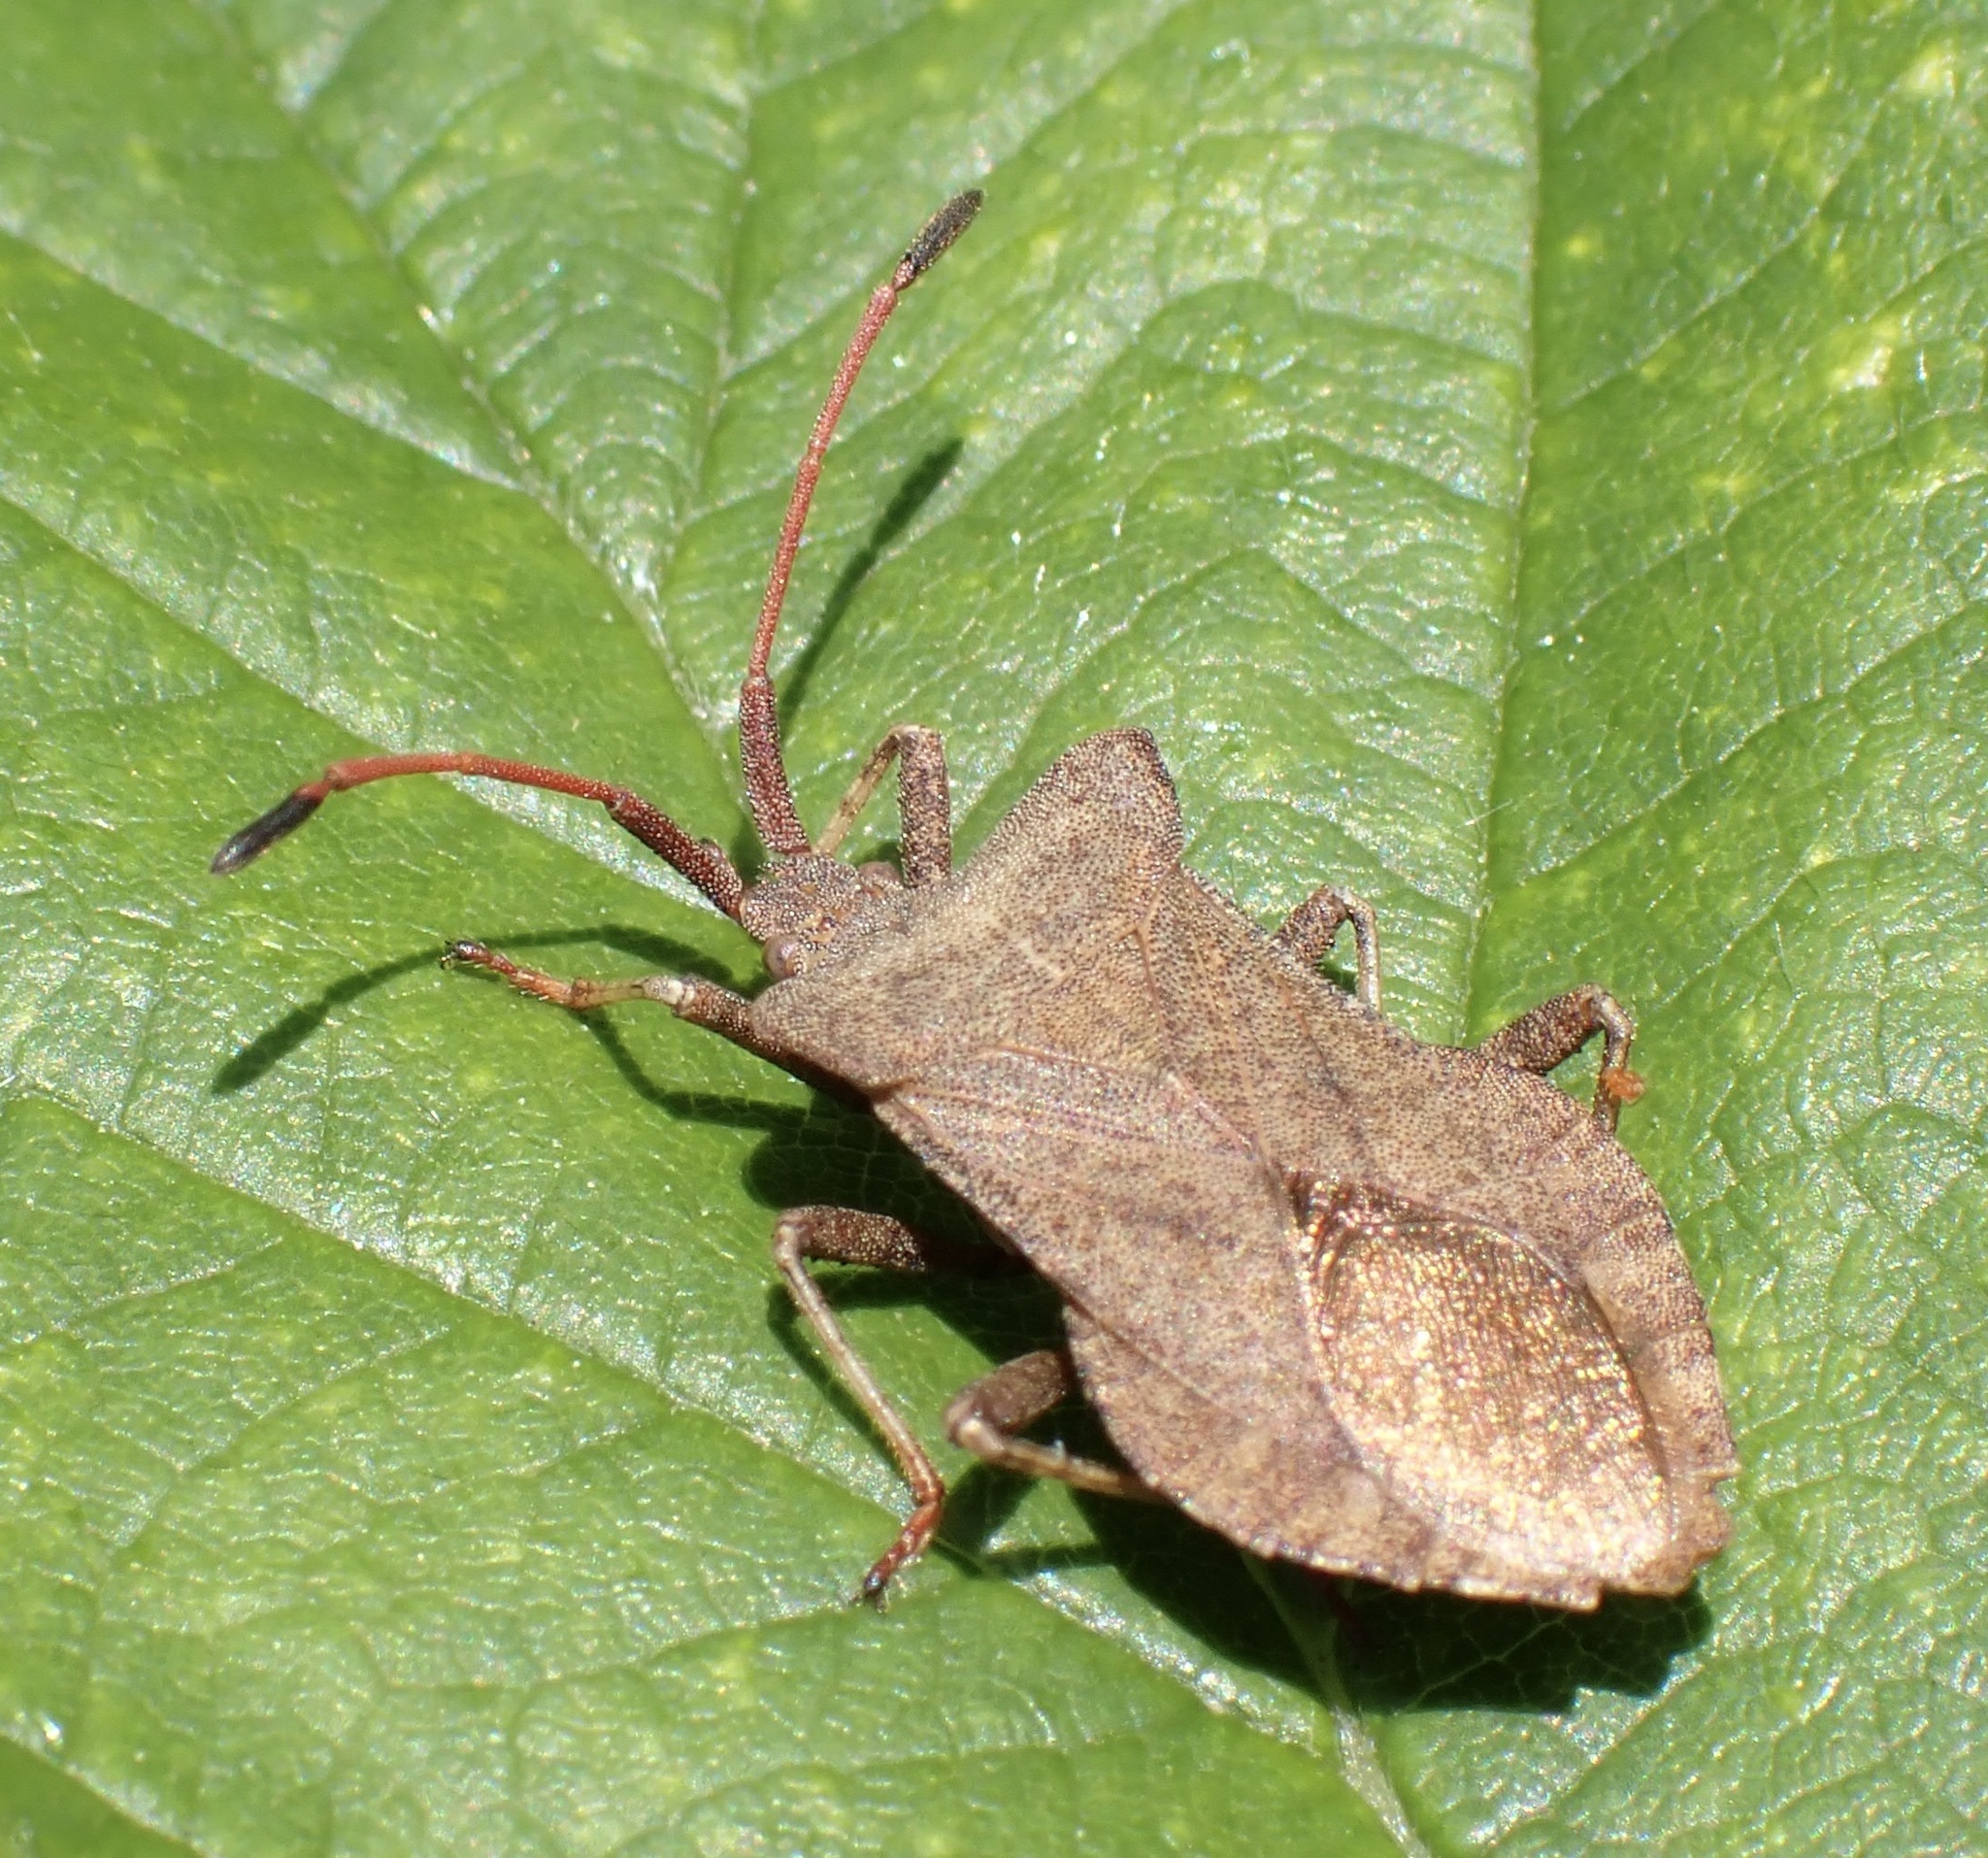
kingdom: Animalia
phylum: Arthropoda
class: Insecta
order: Hemiptera
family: Coreidae
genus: Coreus
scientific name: Coreus marginatus
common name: Dock bug
